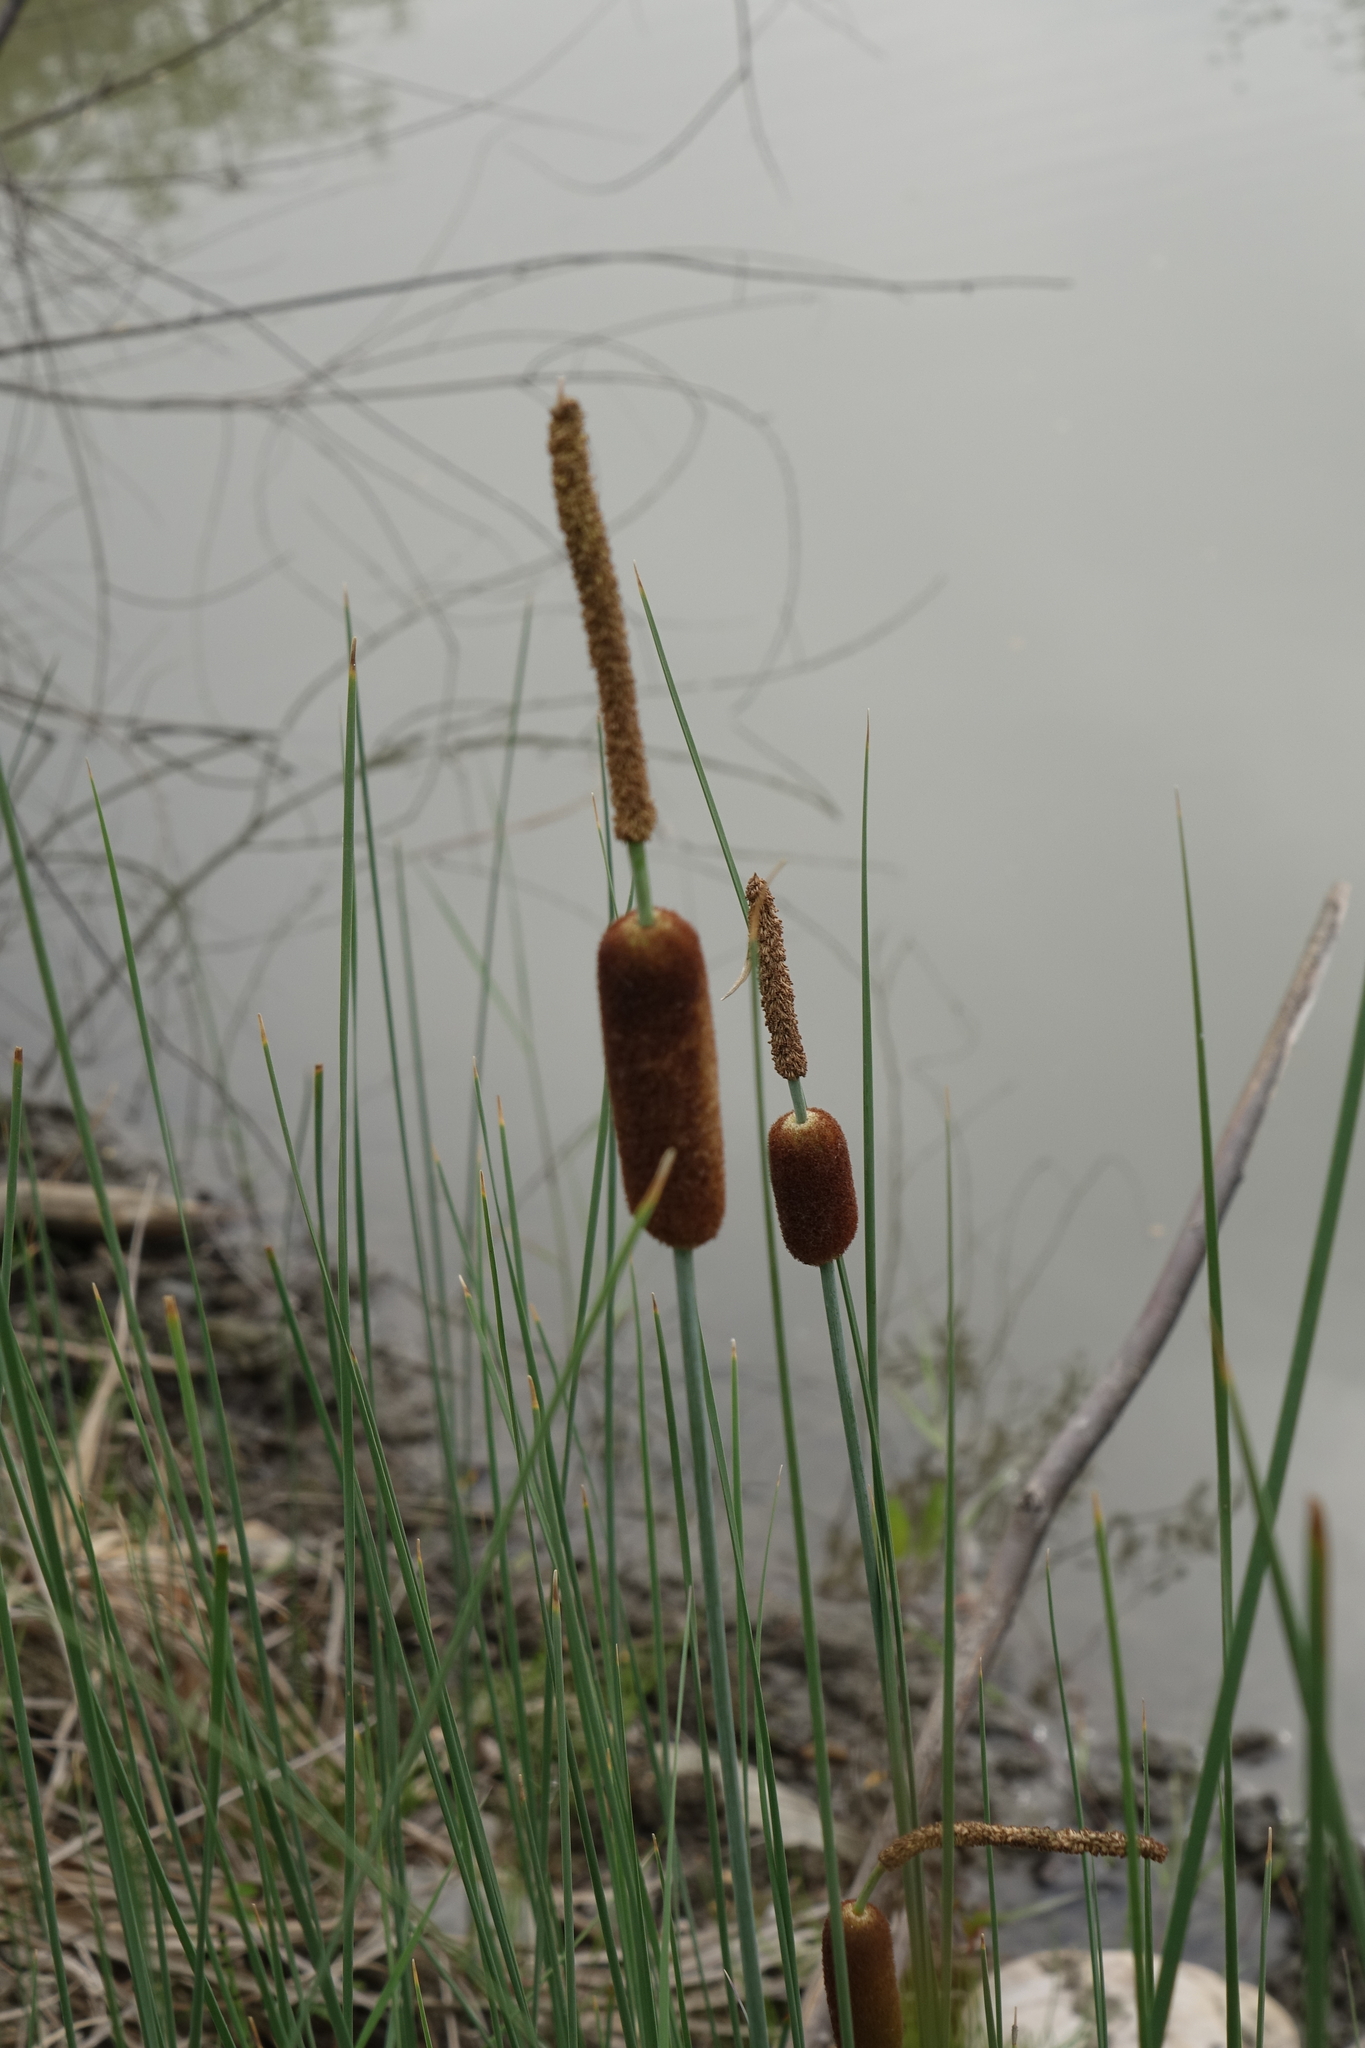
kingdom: Plantae
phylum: Tracheophyta
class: Liliopsida
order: Poales
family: Typhaceae
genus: Typha
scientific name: Typha laxmannii
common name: Laxman’s bulrush
